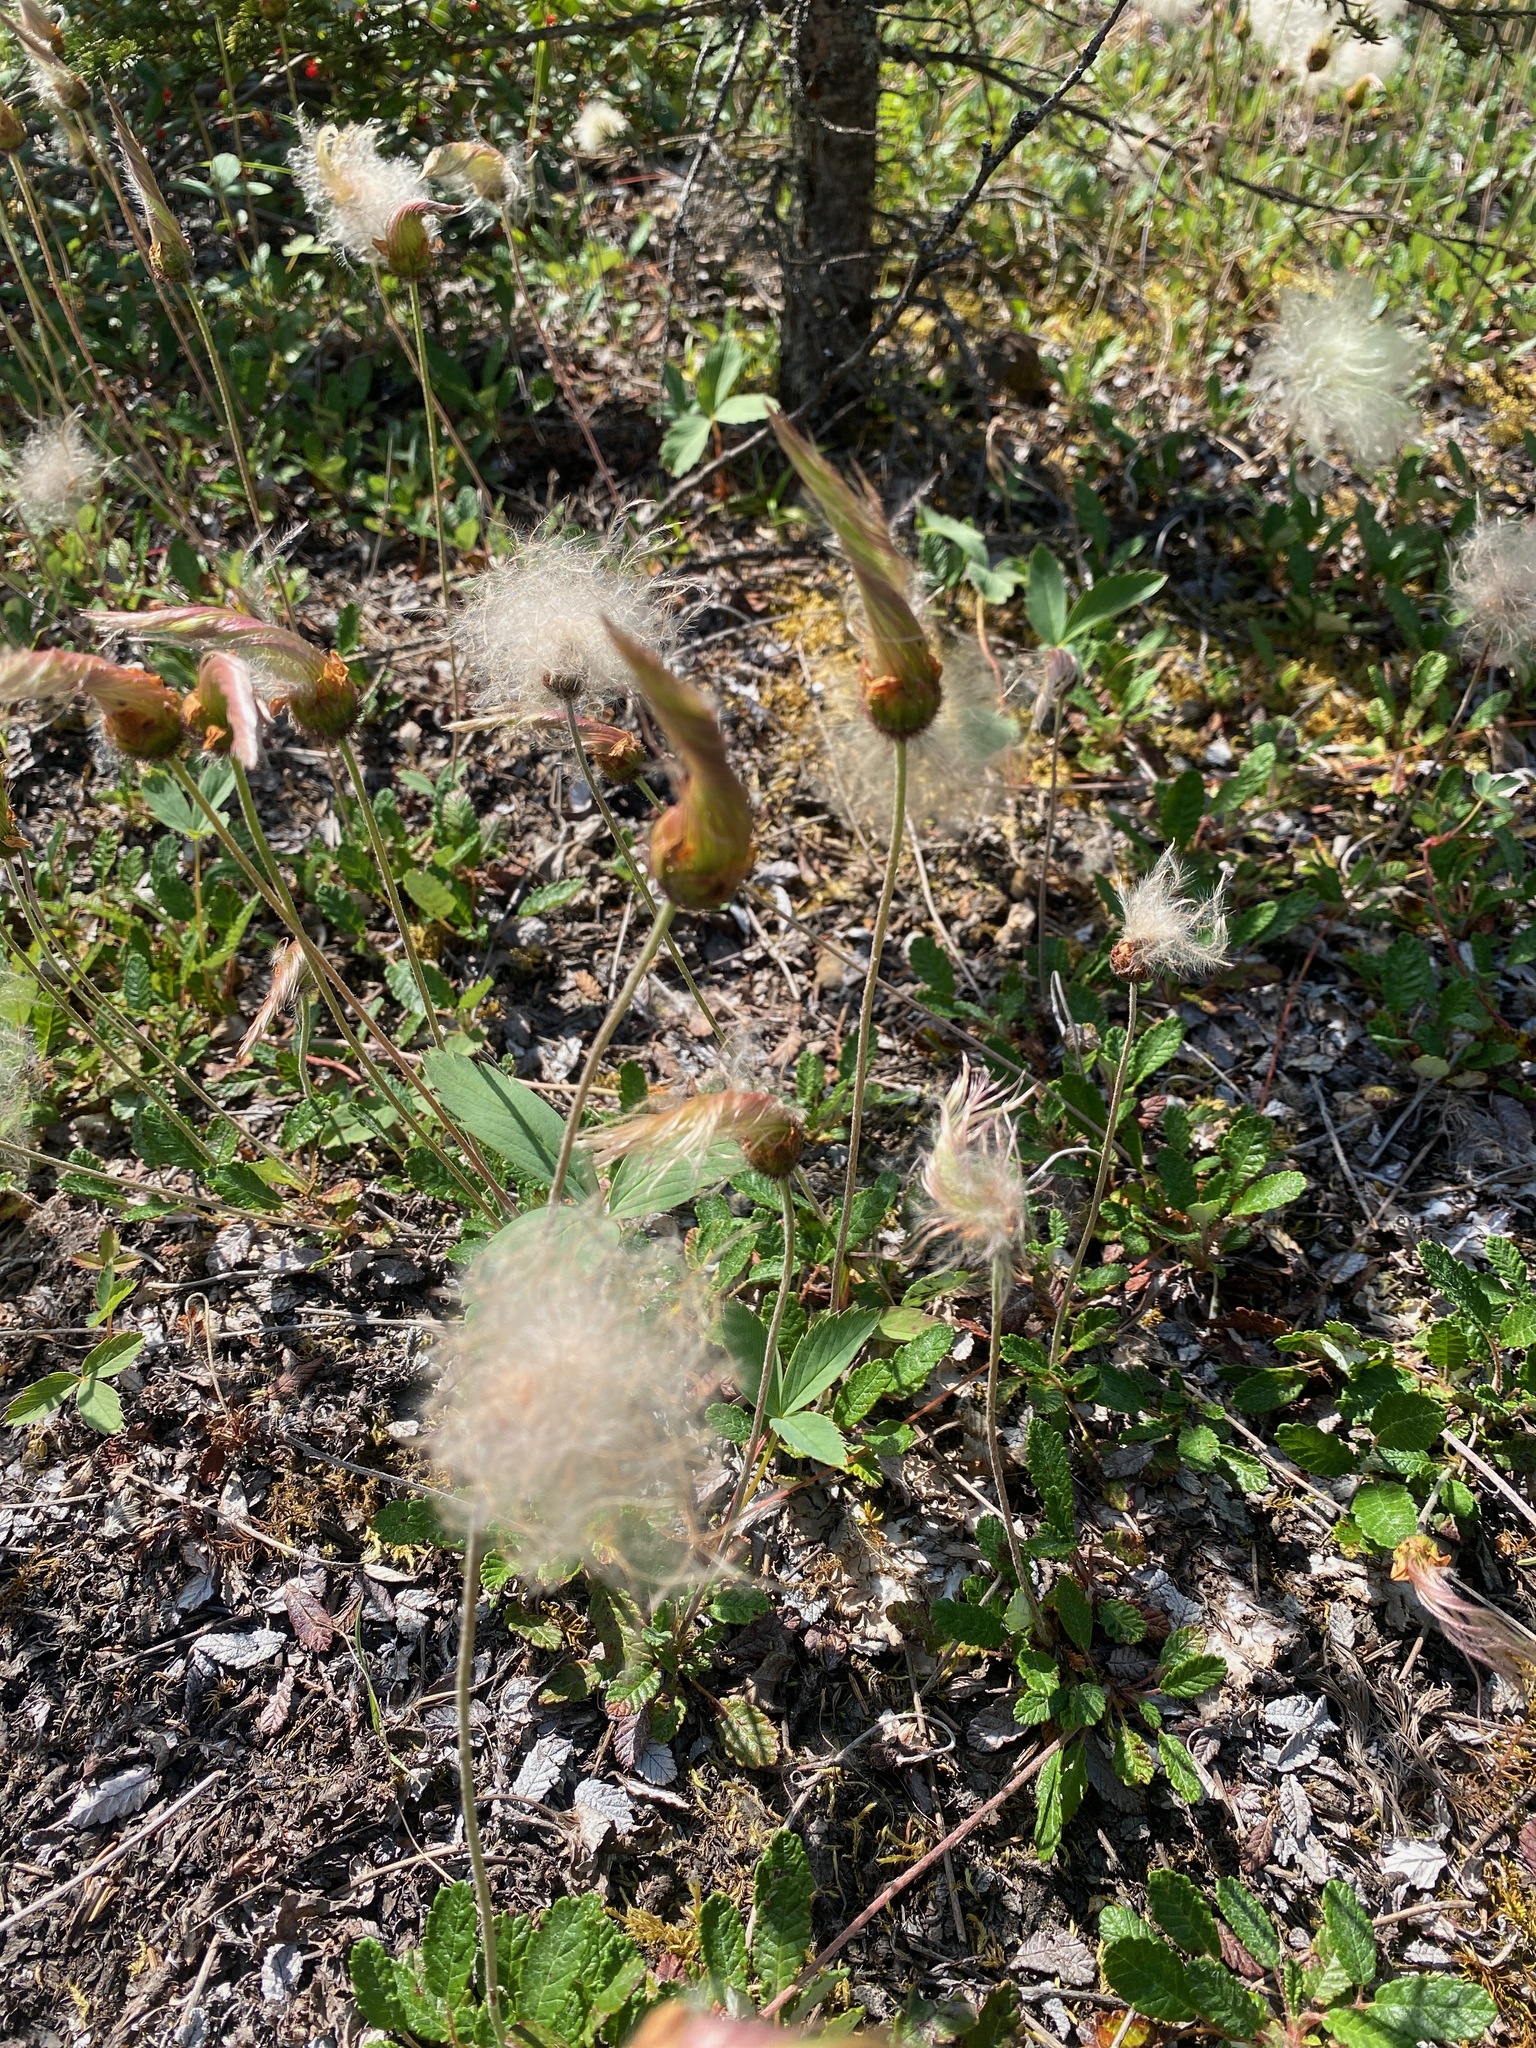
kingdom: Plantae
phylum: Tracheophyta
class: Magnoliopsida
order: Rosales
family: Rosaceae
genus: Dryas
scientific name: Dryas drummondii
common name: Drummond's dryad
